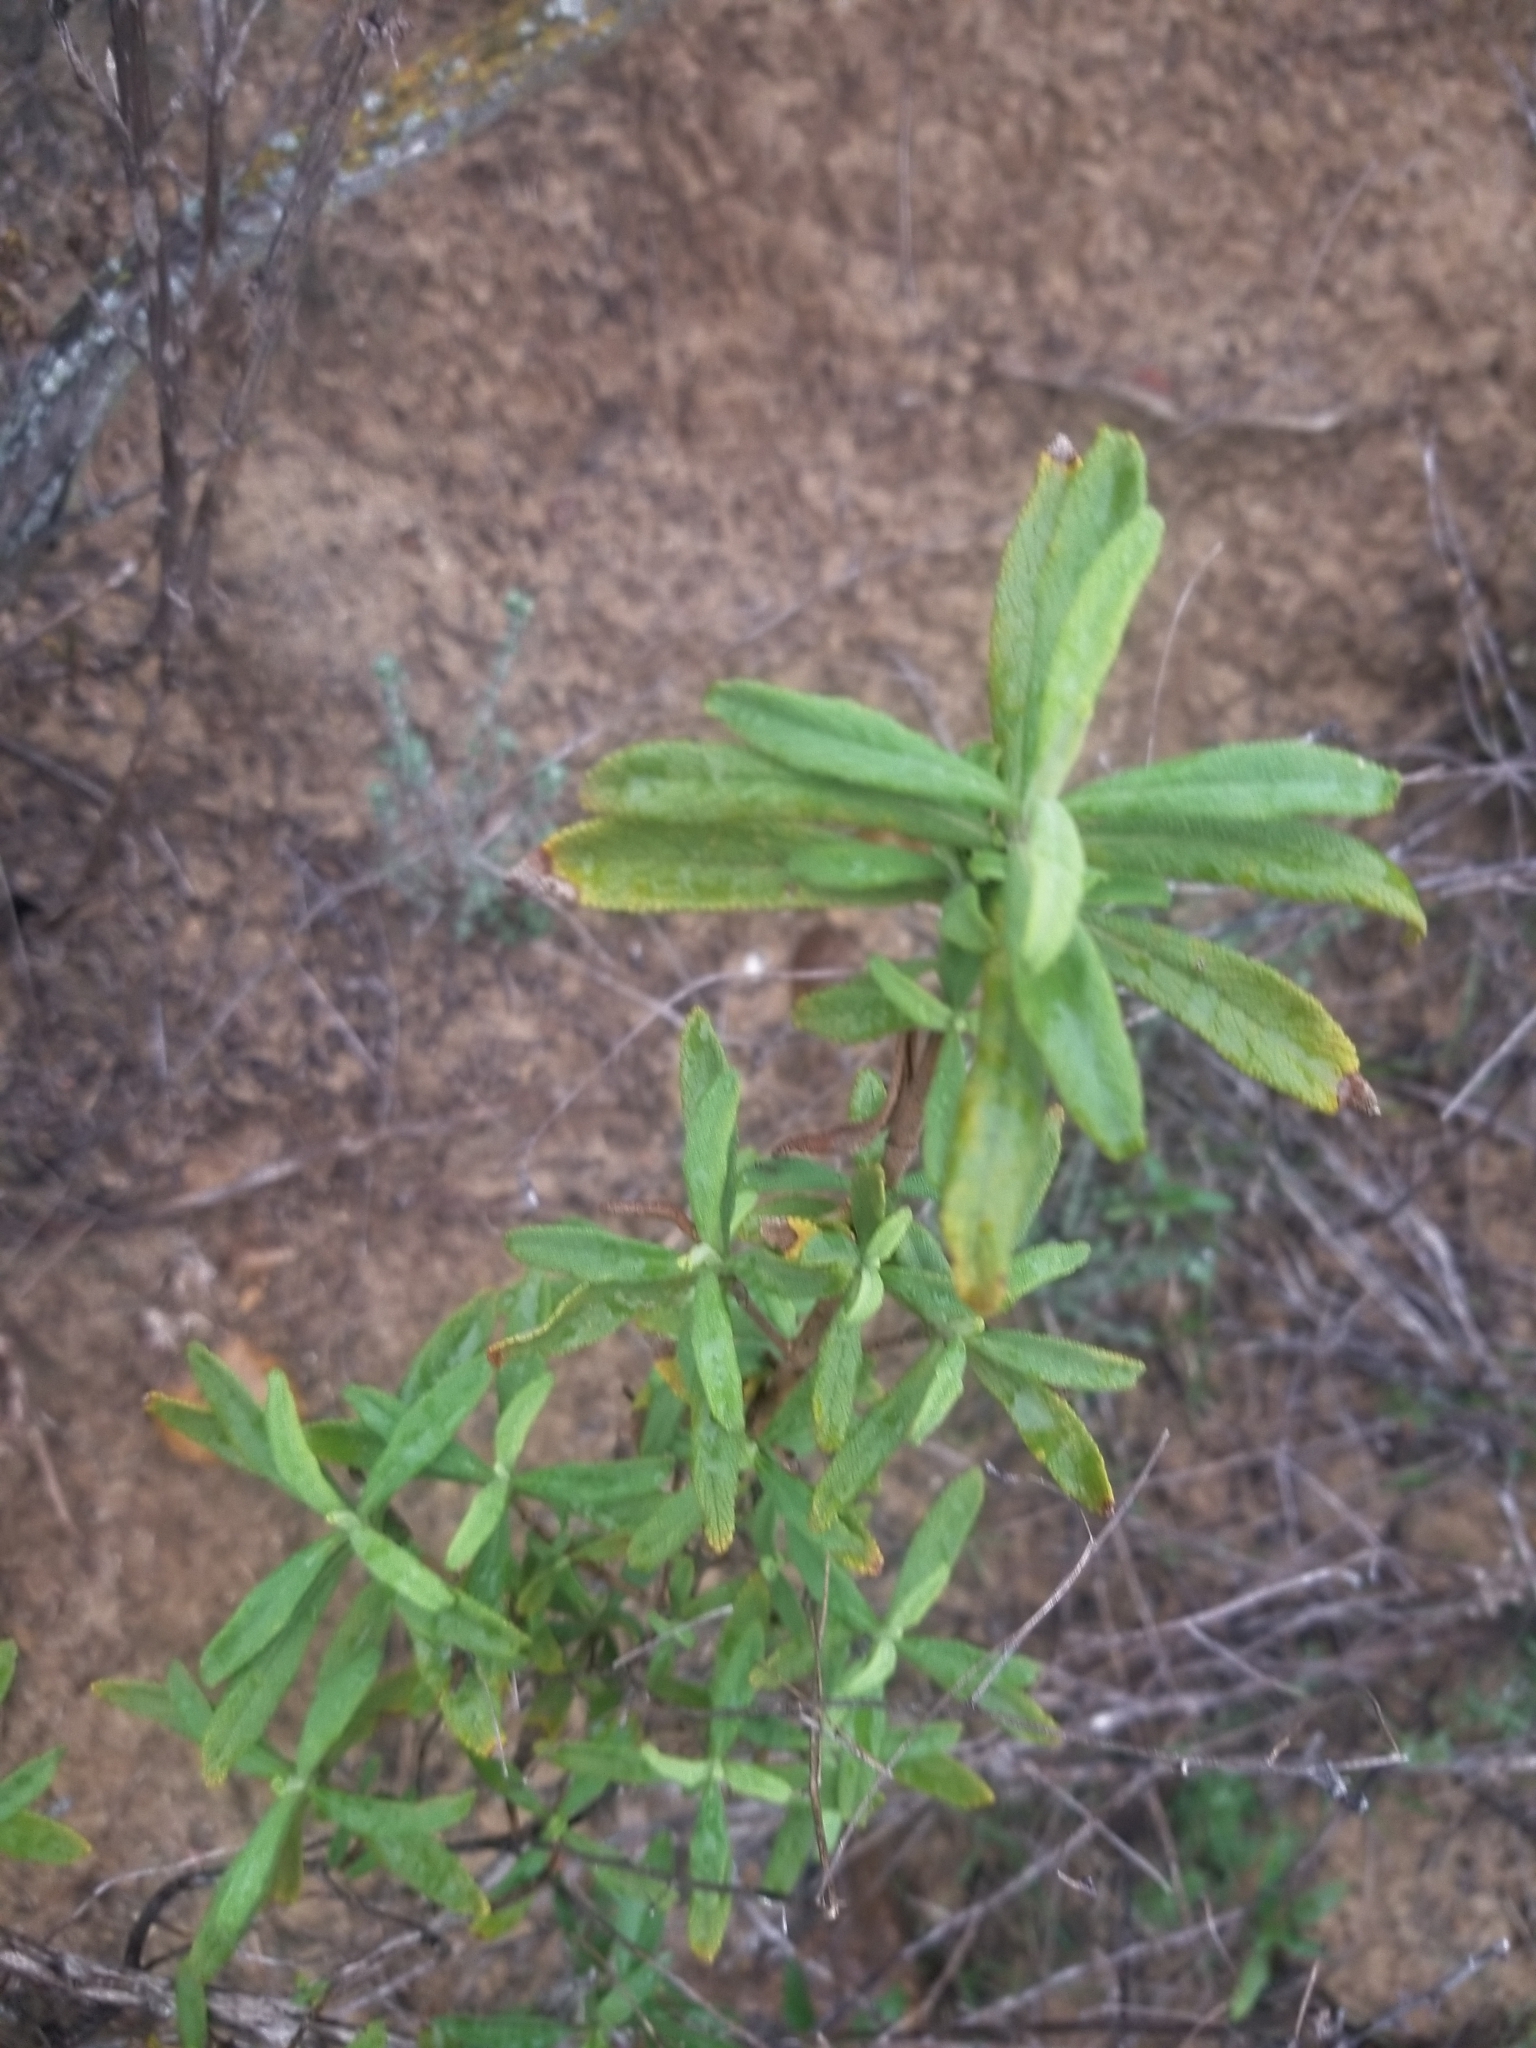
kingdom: Plantae
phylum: Tracheophyta
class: Magnoliopsida
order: Lamiales
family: Lamiaceae
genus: Salvia
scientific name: Salvia mellifera
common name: Black sage
